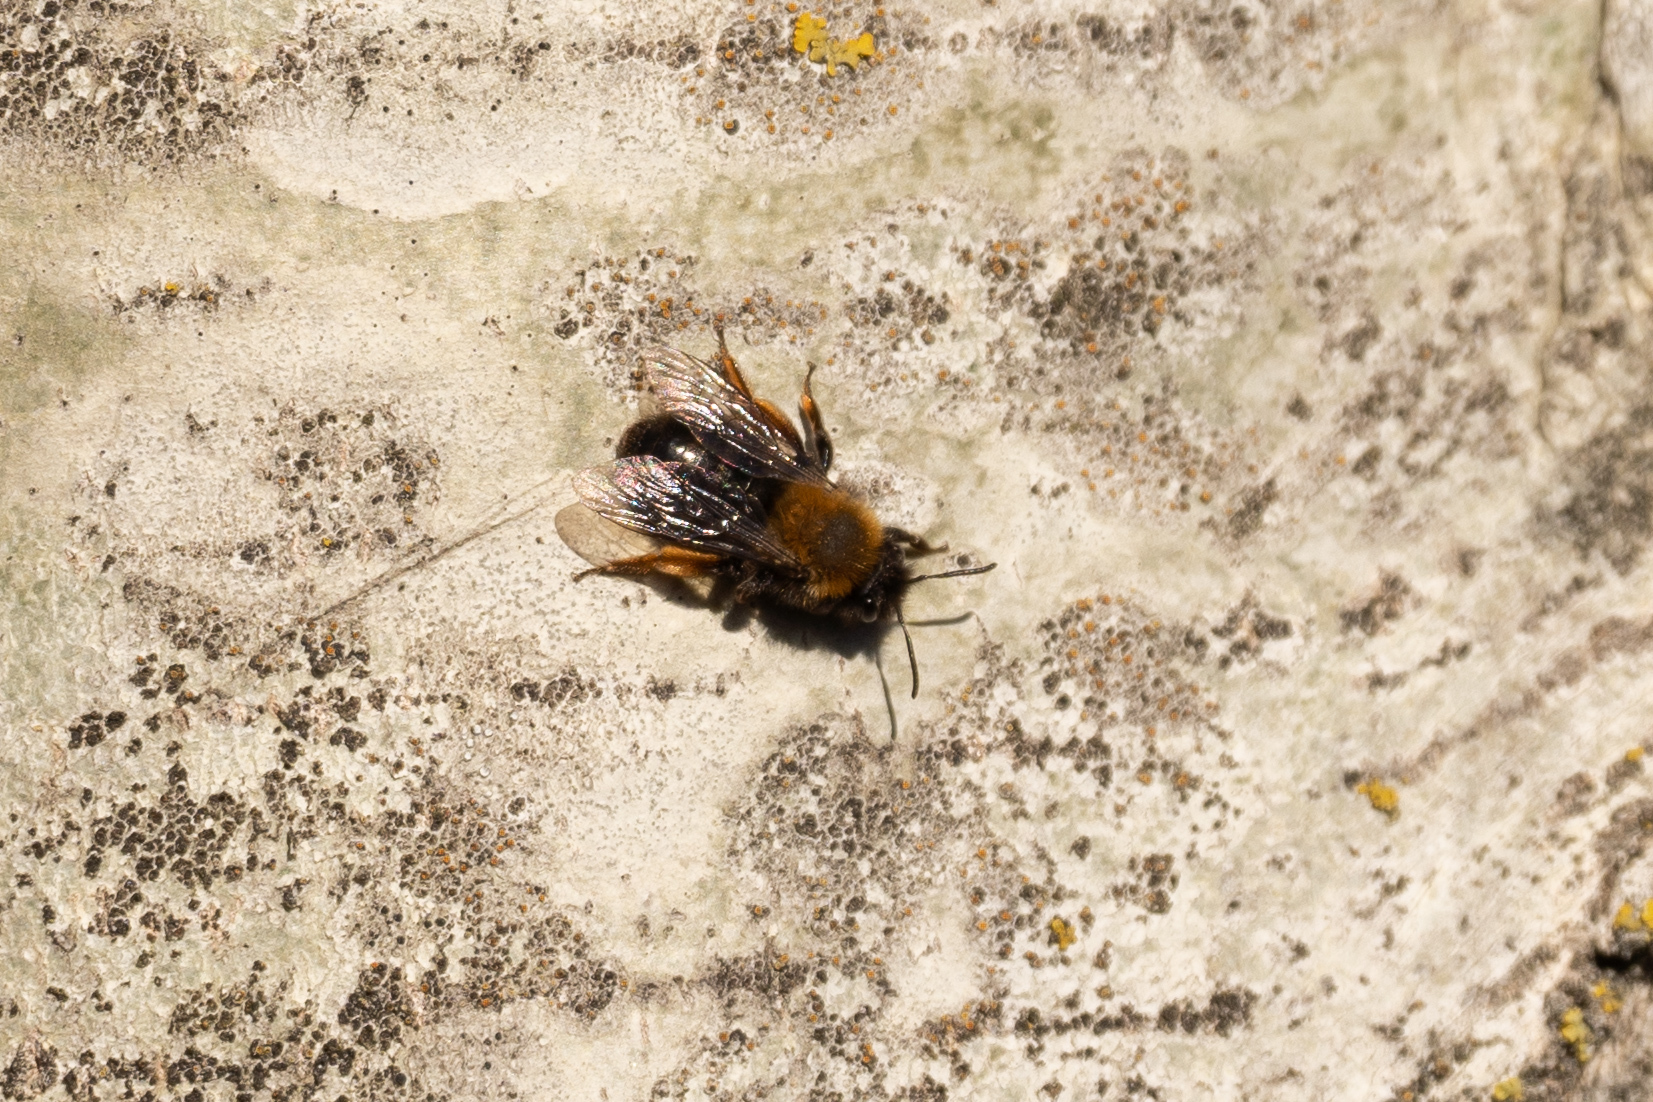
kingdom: Animalia
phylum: Arthropoda
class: Insecta
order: Hymenoptera
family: Andrenidae
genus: Andrena
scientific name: Andrena clarkella
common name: Clarke's mining bee
